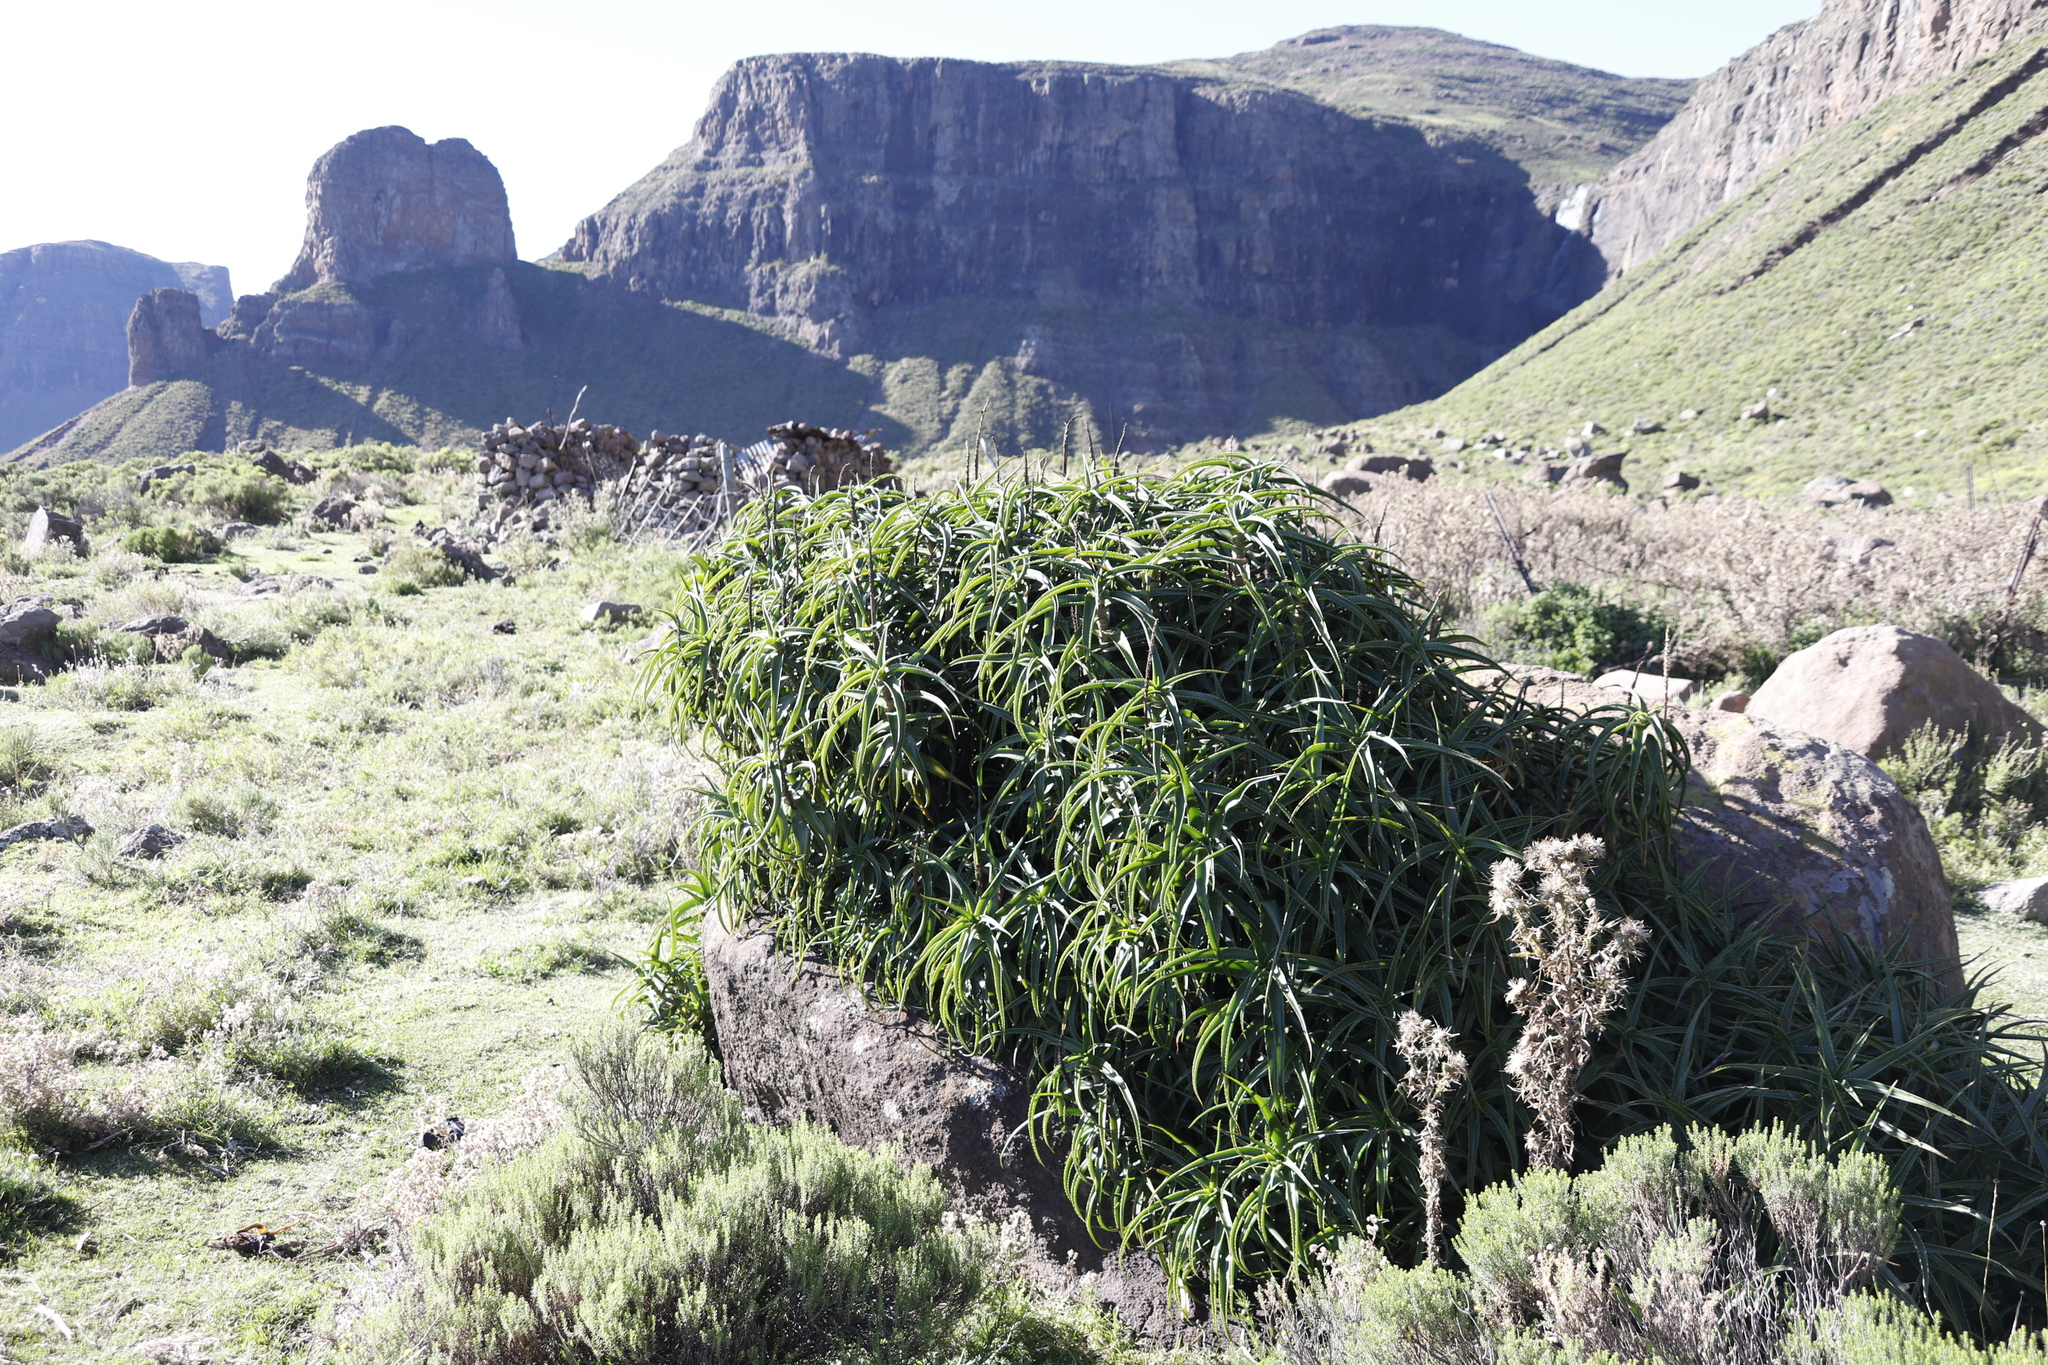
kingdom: Plantae
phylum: Tracheophyta
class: Liliopsida
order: Asparagales
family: Asphodelaceae
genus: Aloiampelos
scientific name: Aloiampelos striatula
